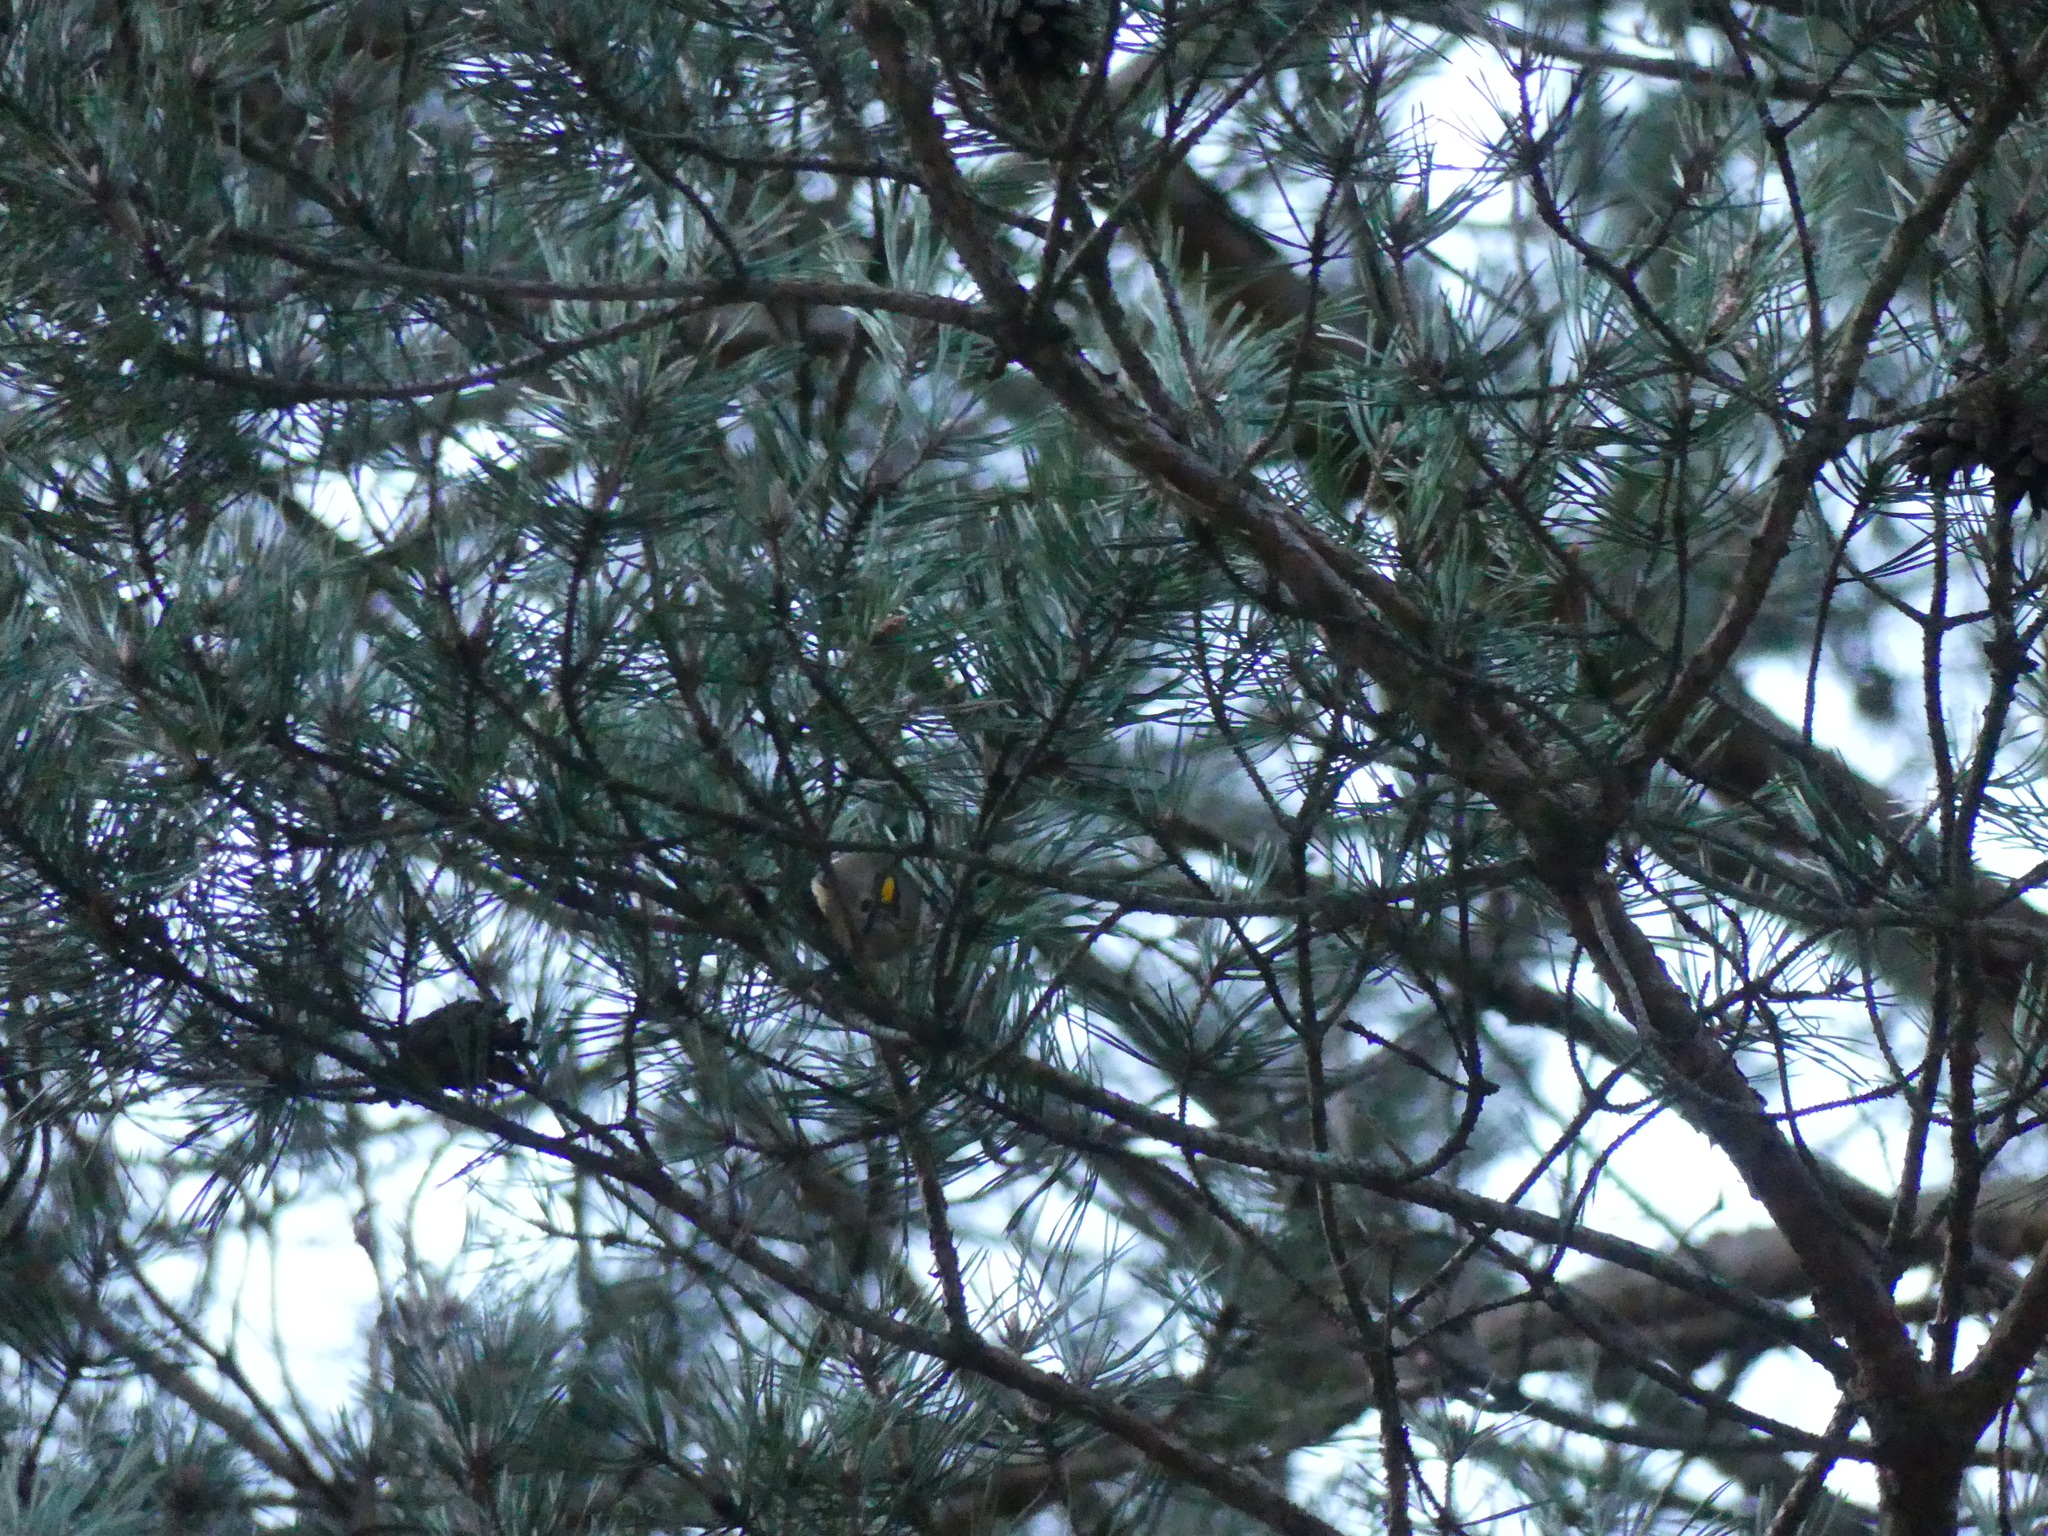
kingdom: Animalia
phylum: Chordata
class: Aves
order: Passeriformes
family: Regulidae
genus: Regulus
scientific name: Regulus regulus
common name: Goldcrest
